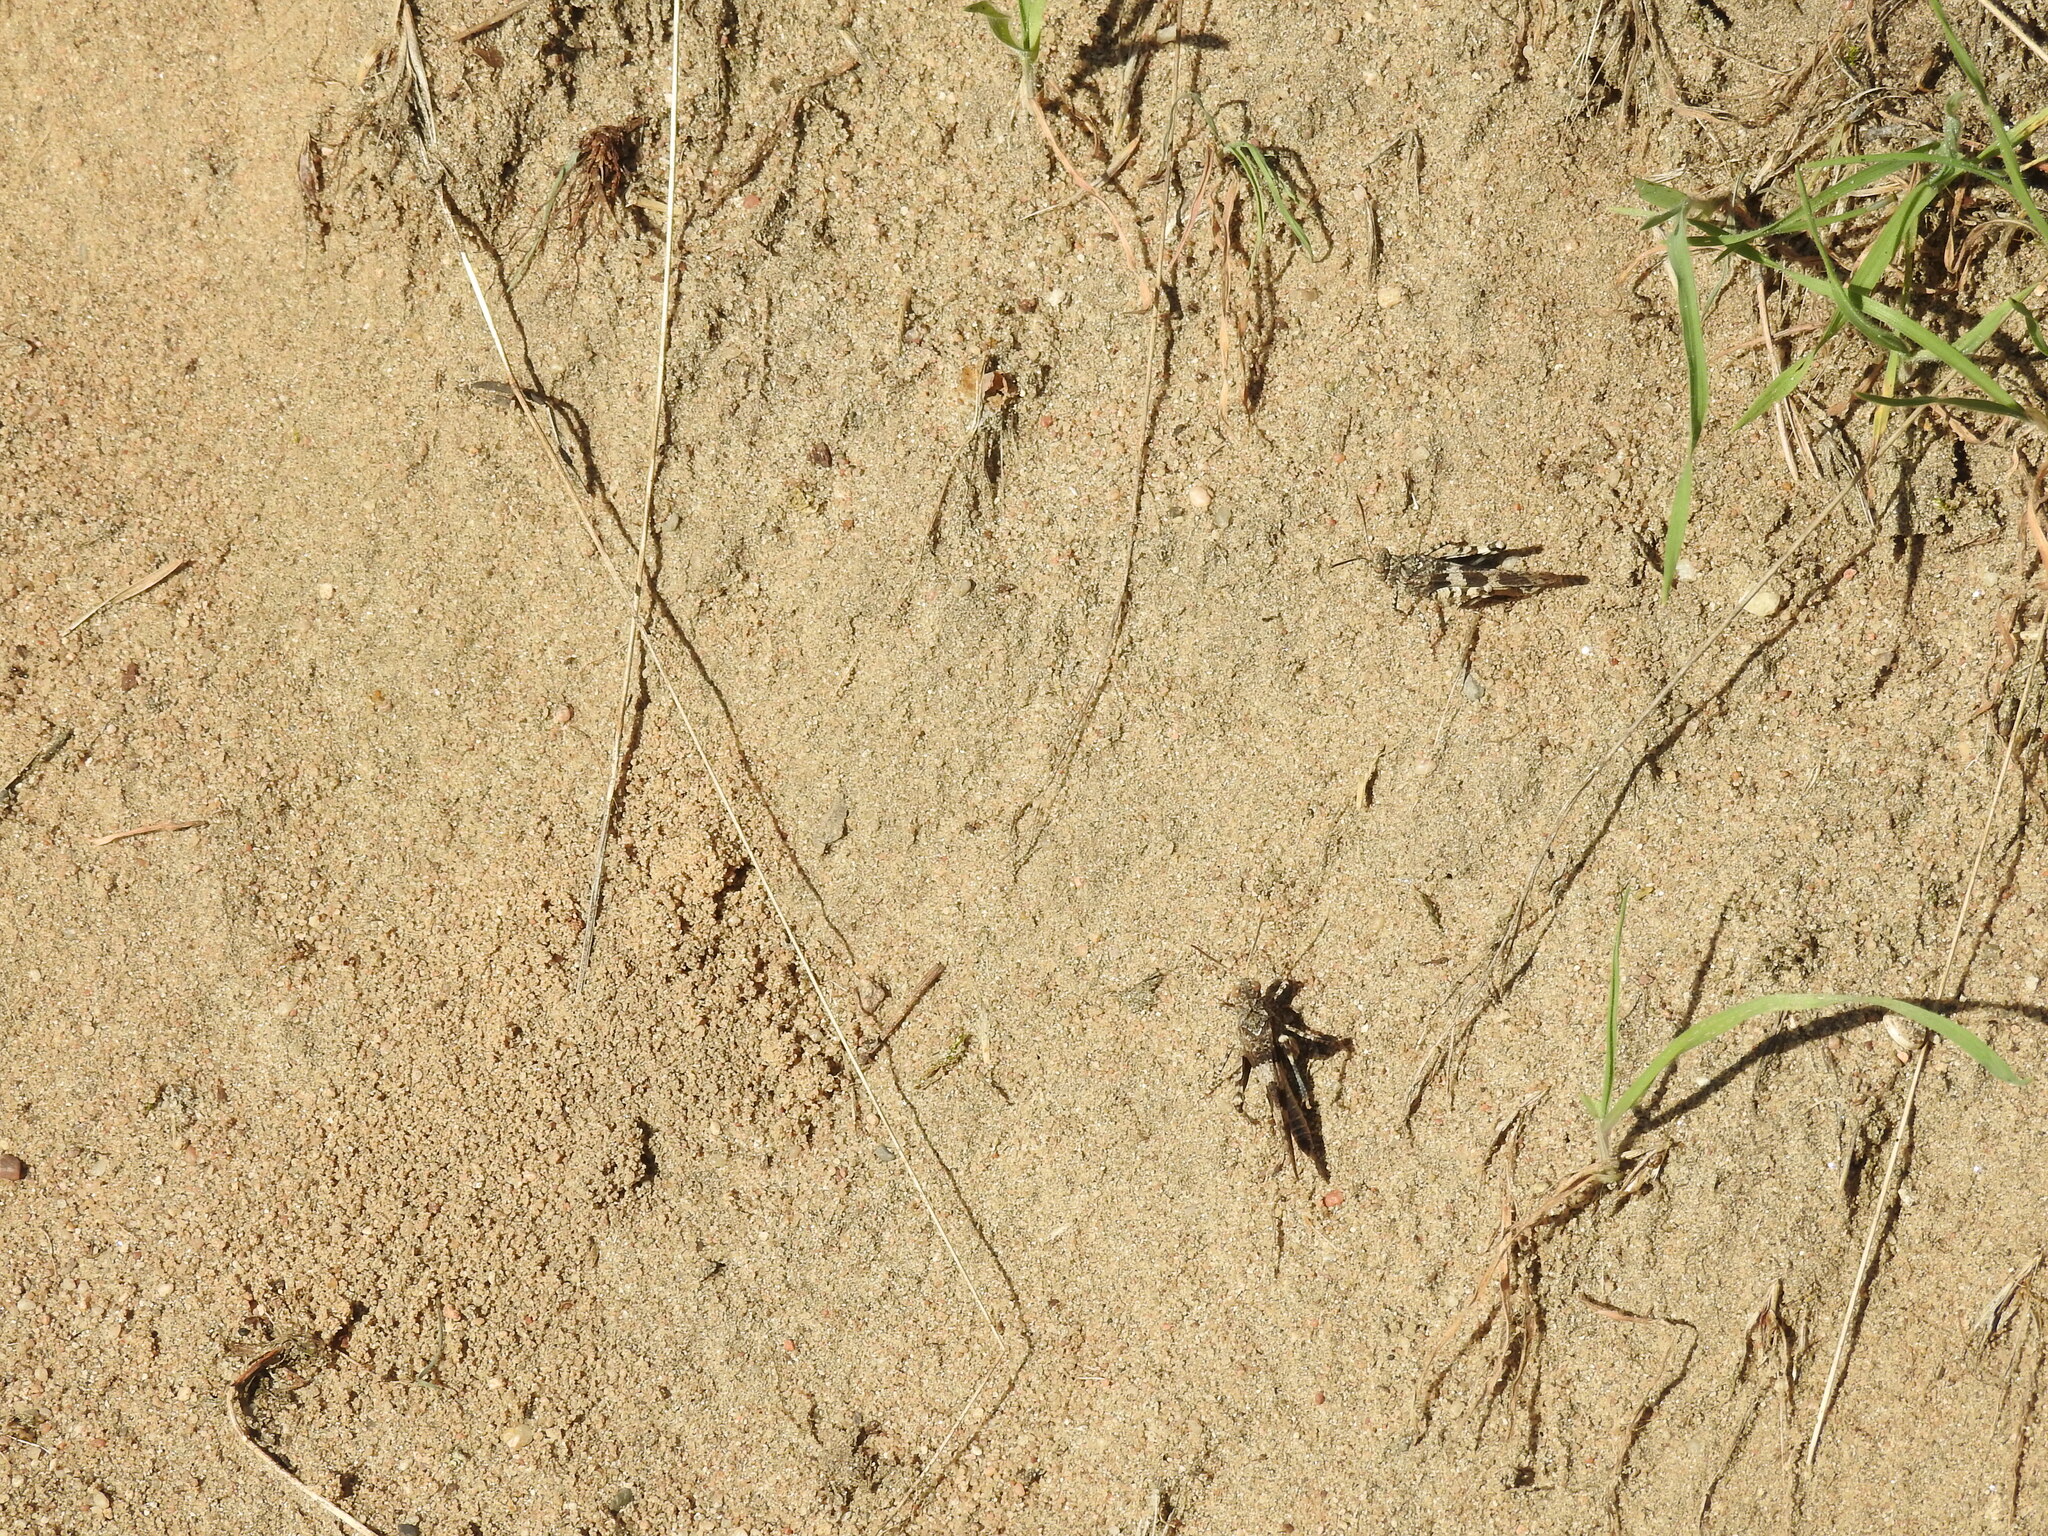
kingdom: Animalia
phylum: Arthropoda
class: Insecta
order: Orthoptera
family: Acrididae
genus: Oedipoda
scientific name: Oedipoda caerulescens
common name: Blue-winged grasshopper
